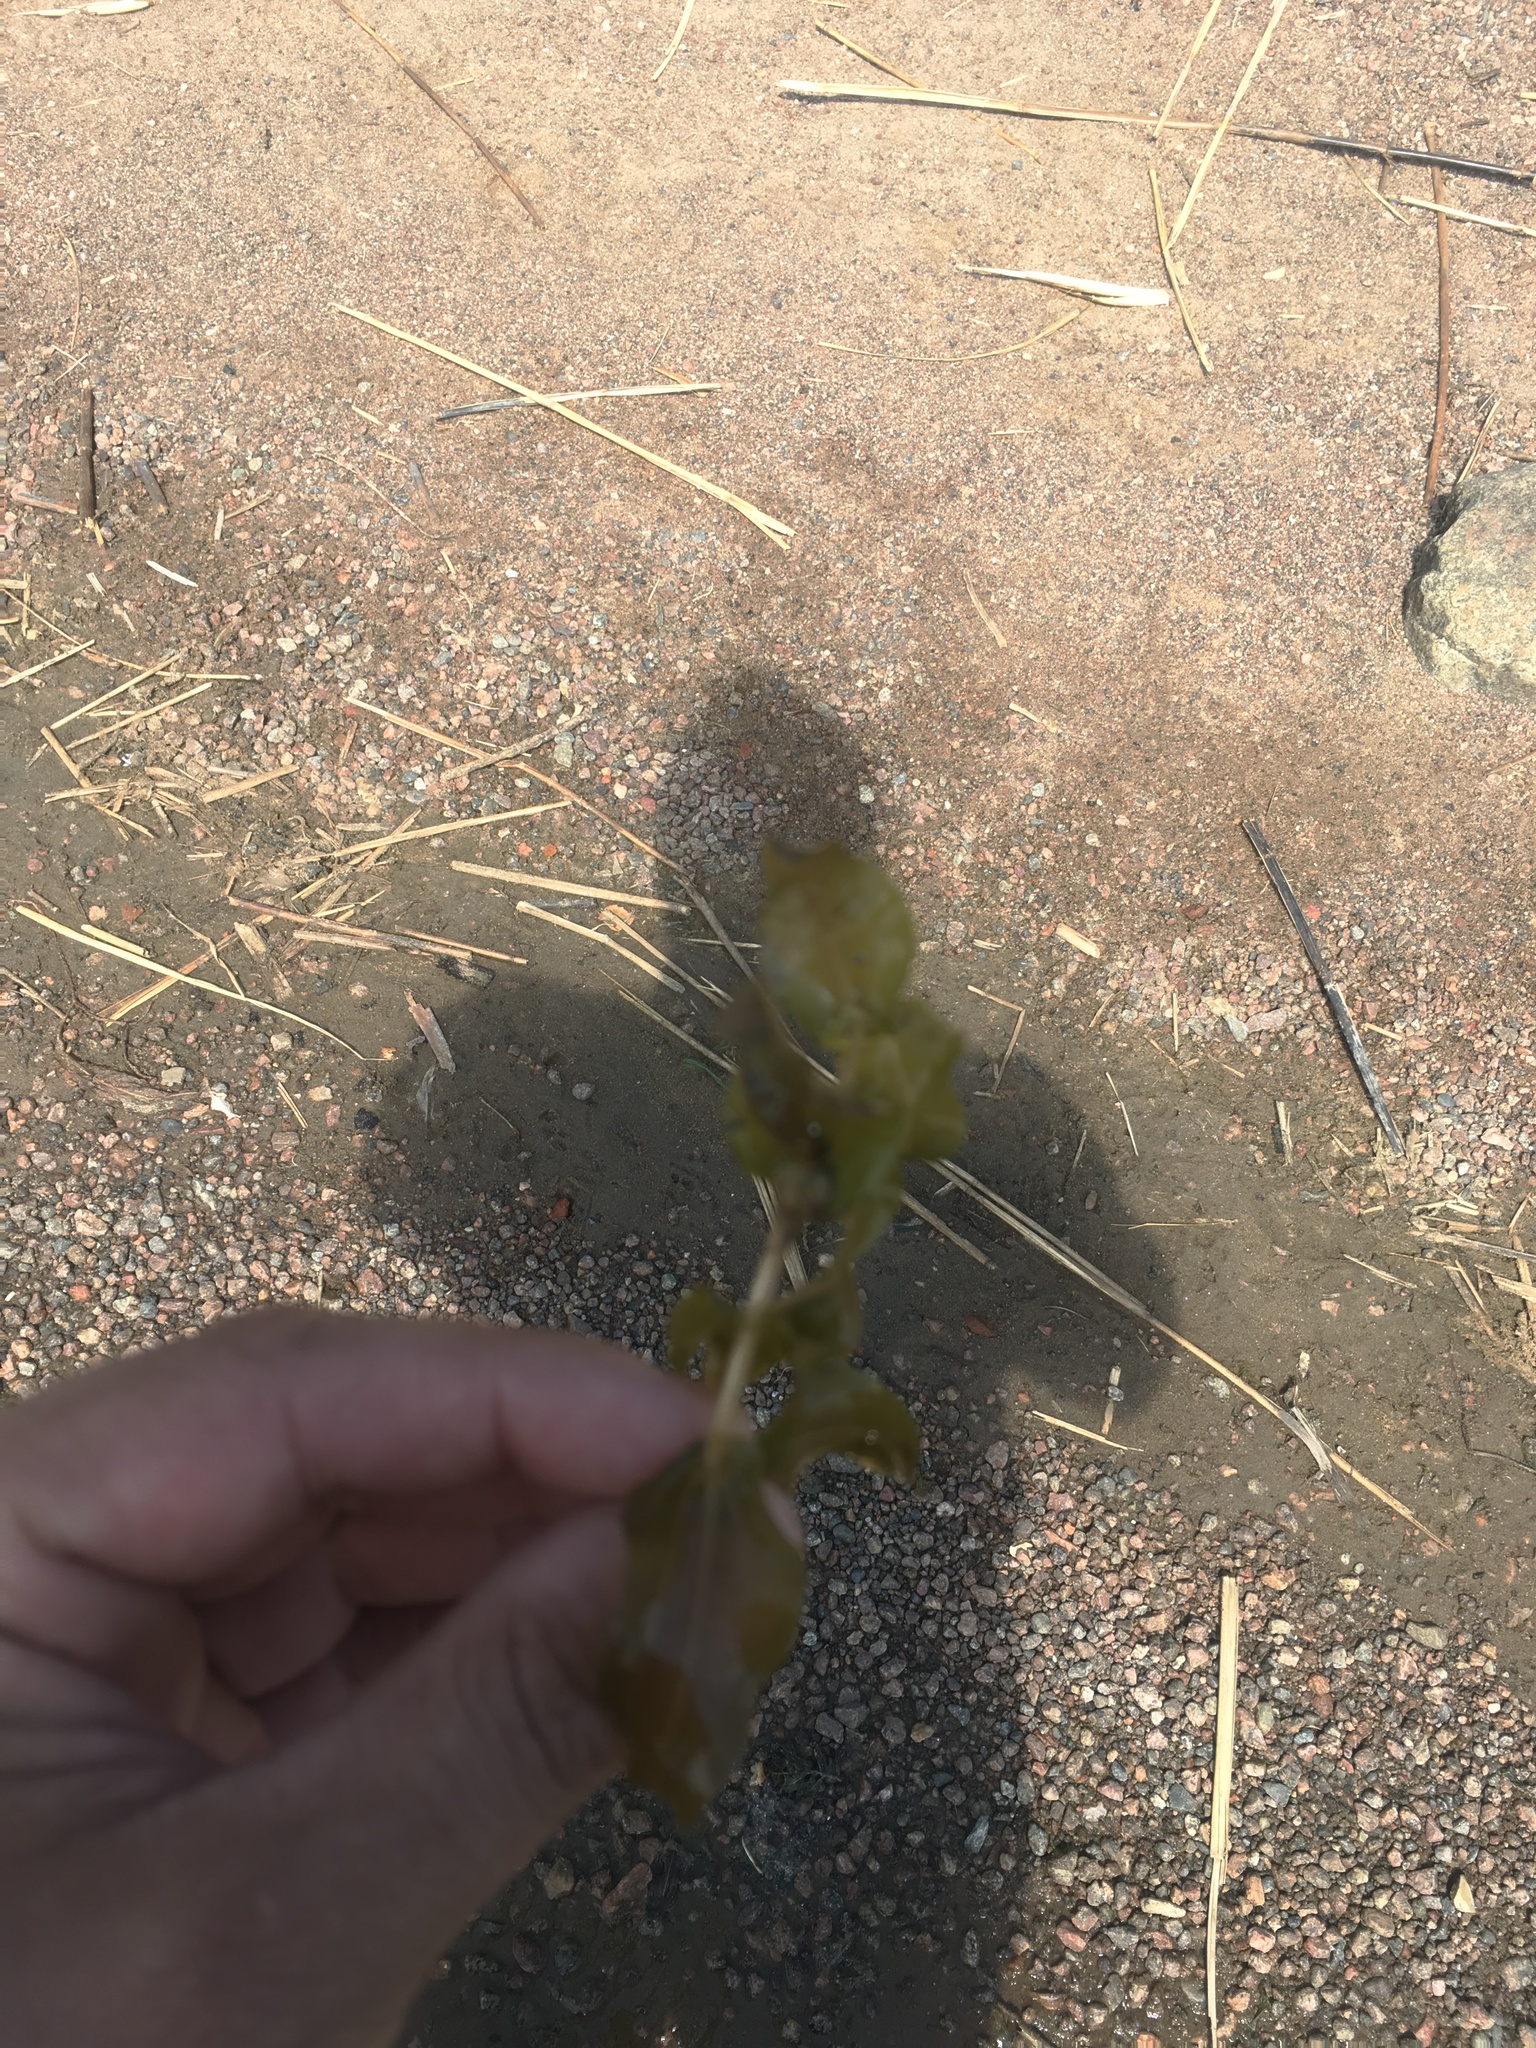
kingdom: Plantae
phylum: Tracheophyta
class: Liliopsida
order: Alismatales
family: Potamogetonaceae
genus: Potamogeton
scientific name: Potamogeton perfoliatus
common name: Perfoliate pondweed
